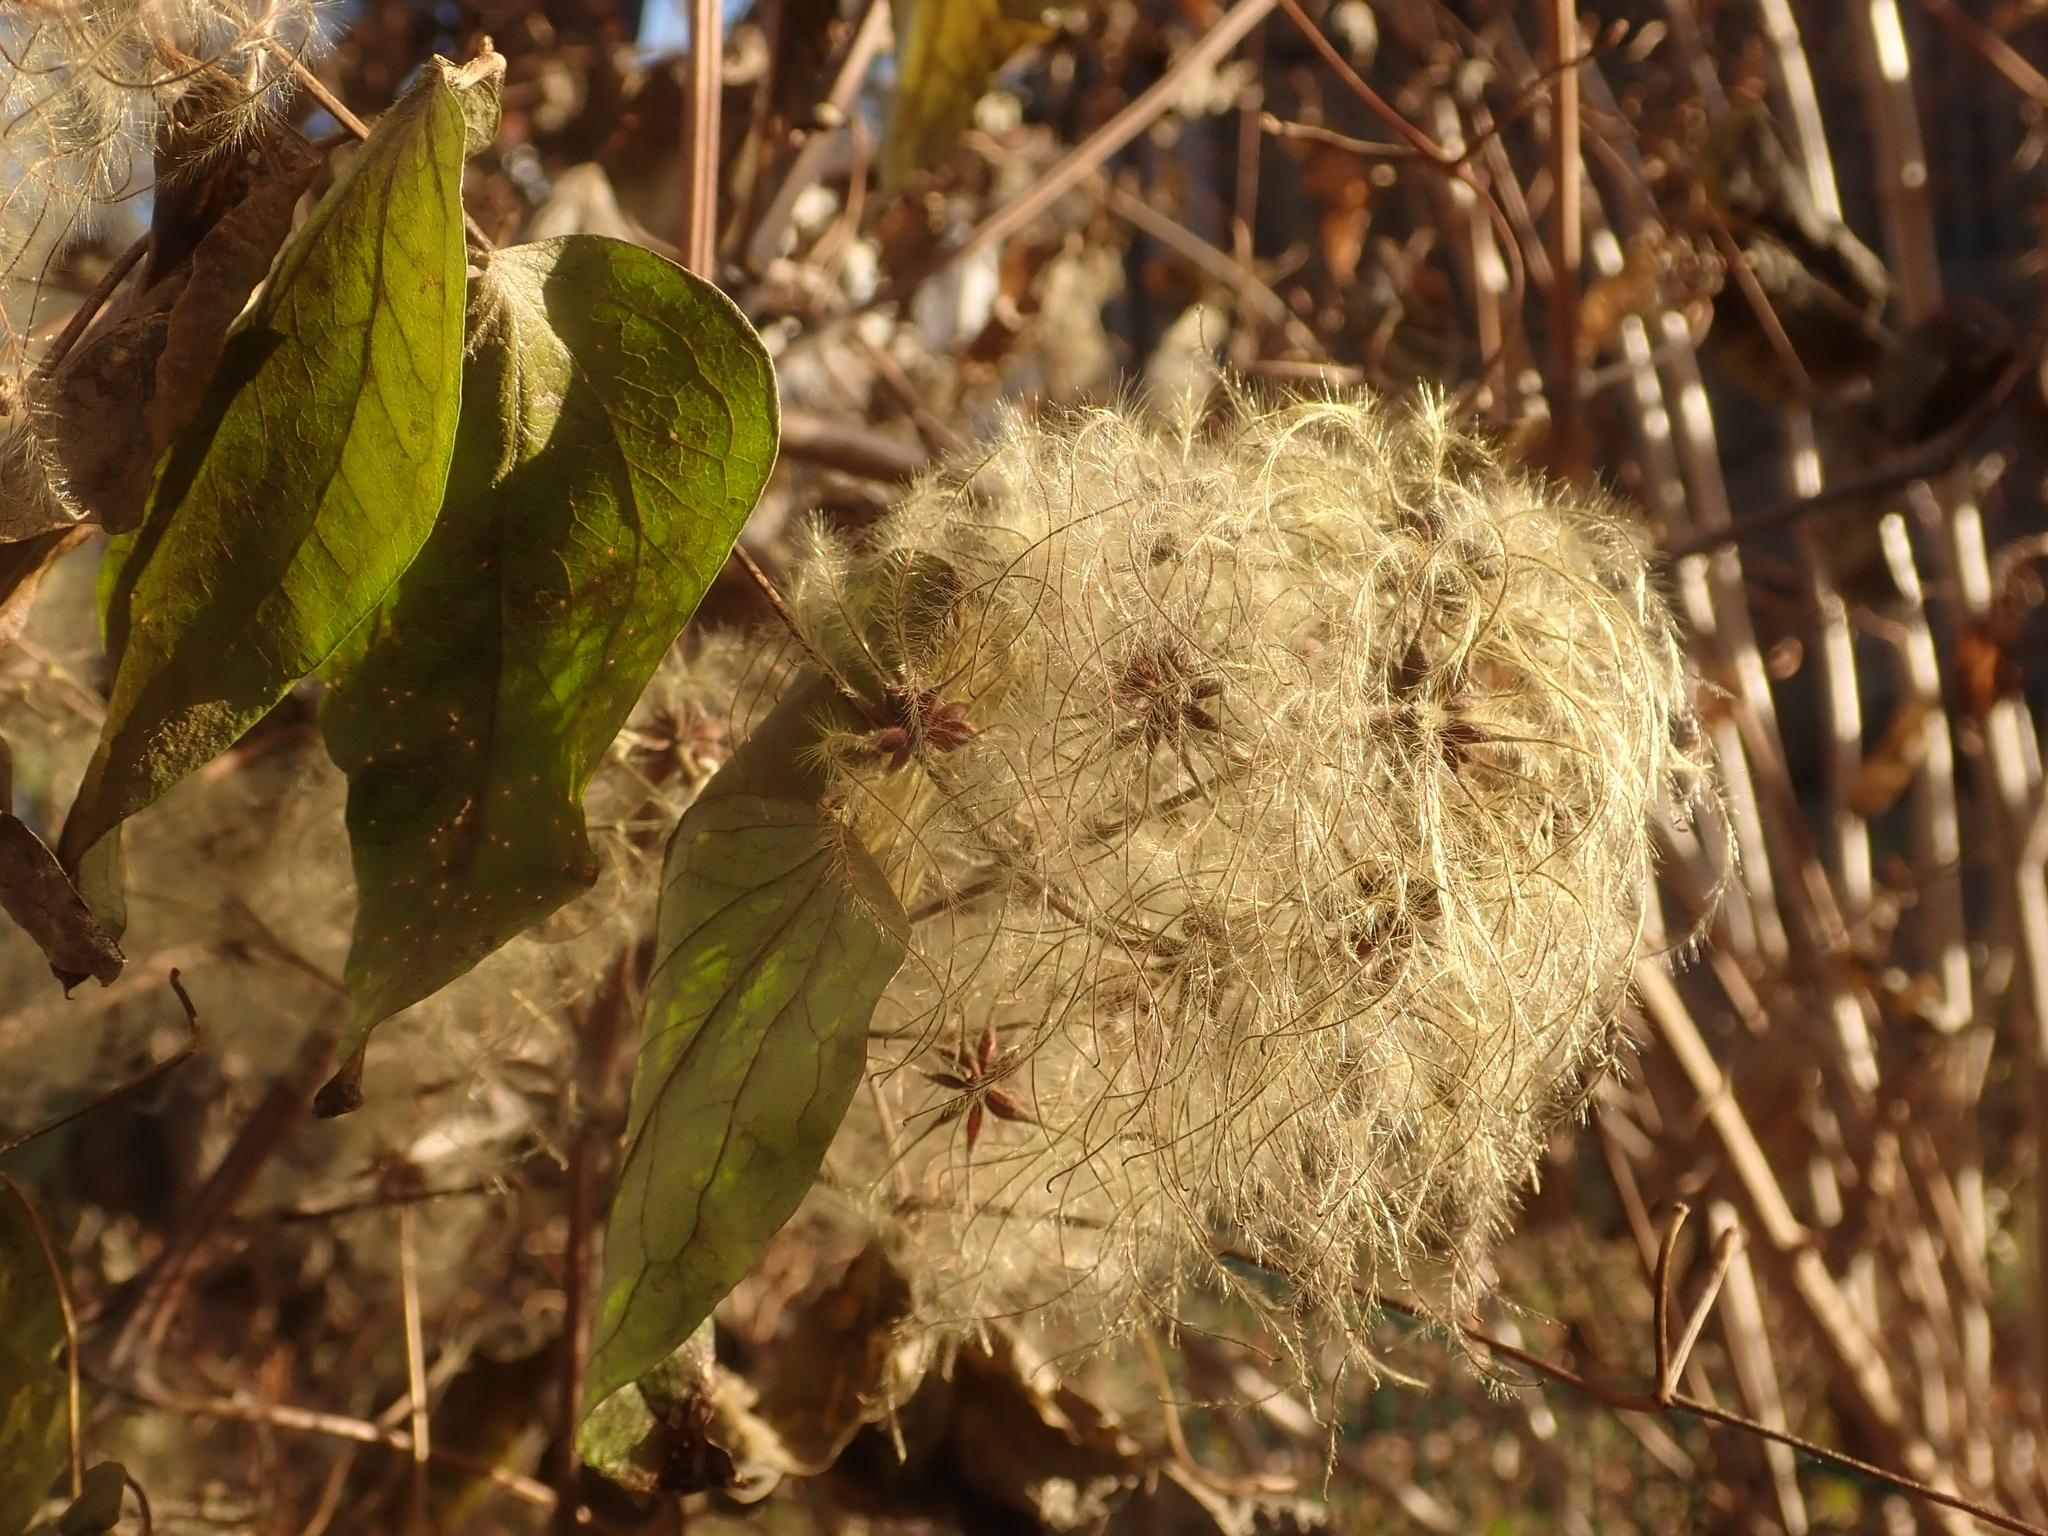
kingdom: Plantae
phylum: Tracheophyta
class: Magnoliopsida
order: Ranunculales
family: Ranunculaceae
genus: Clematis
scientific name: Clematis vitalba
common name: Evergreen clematis
